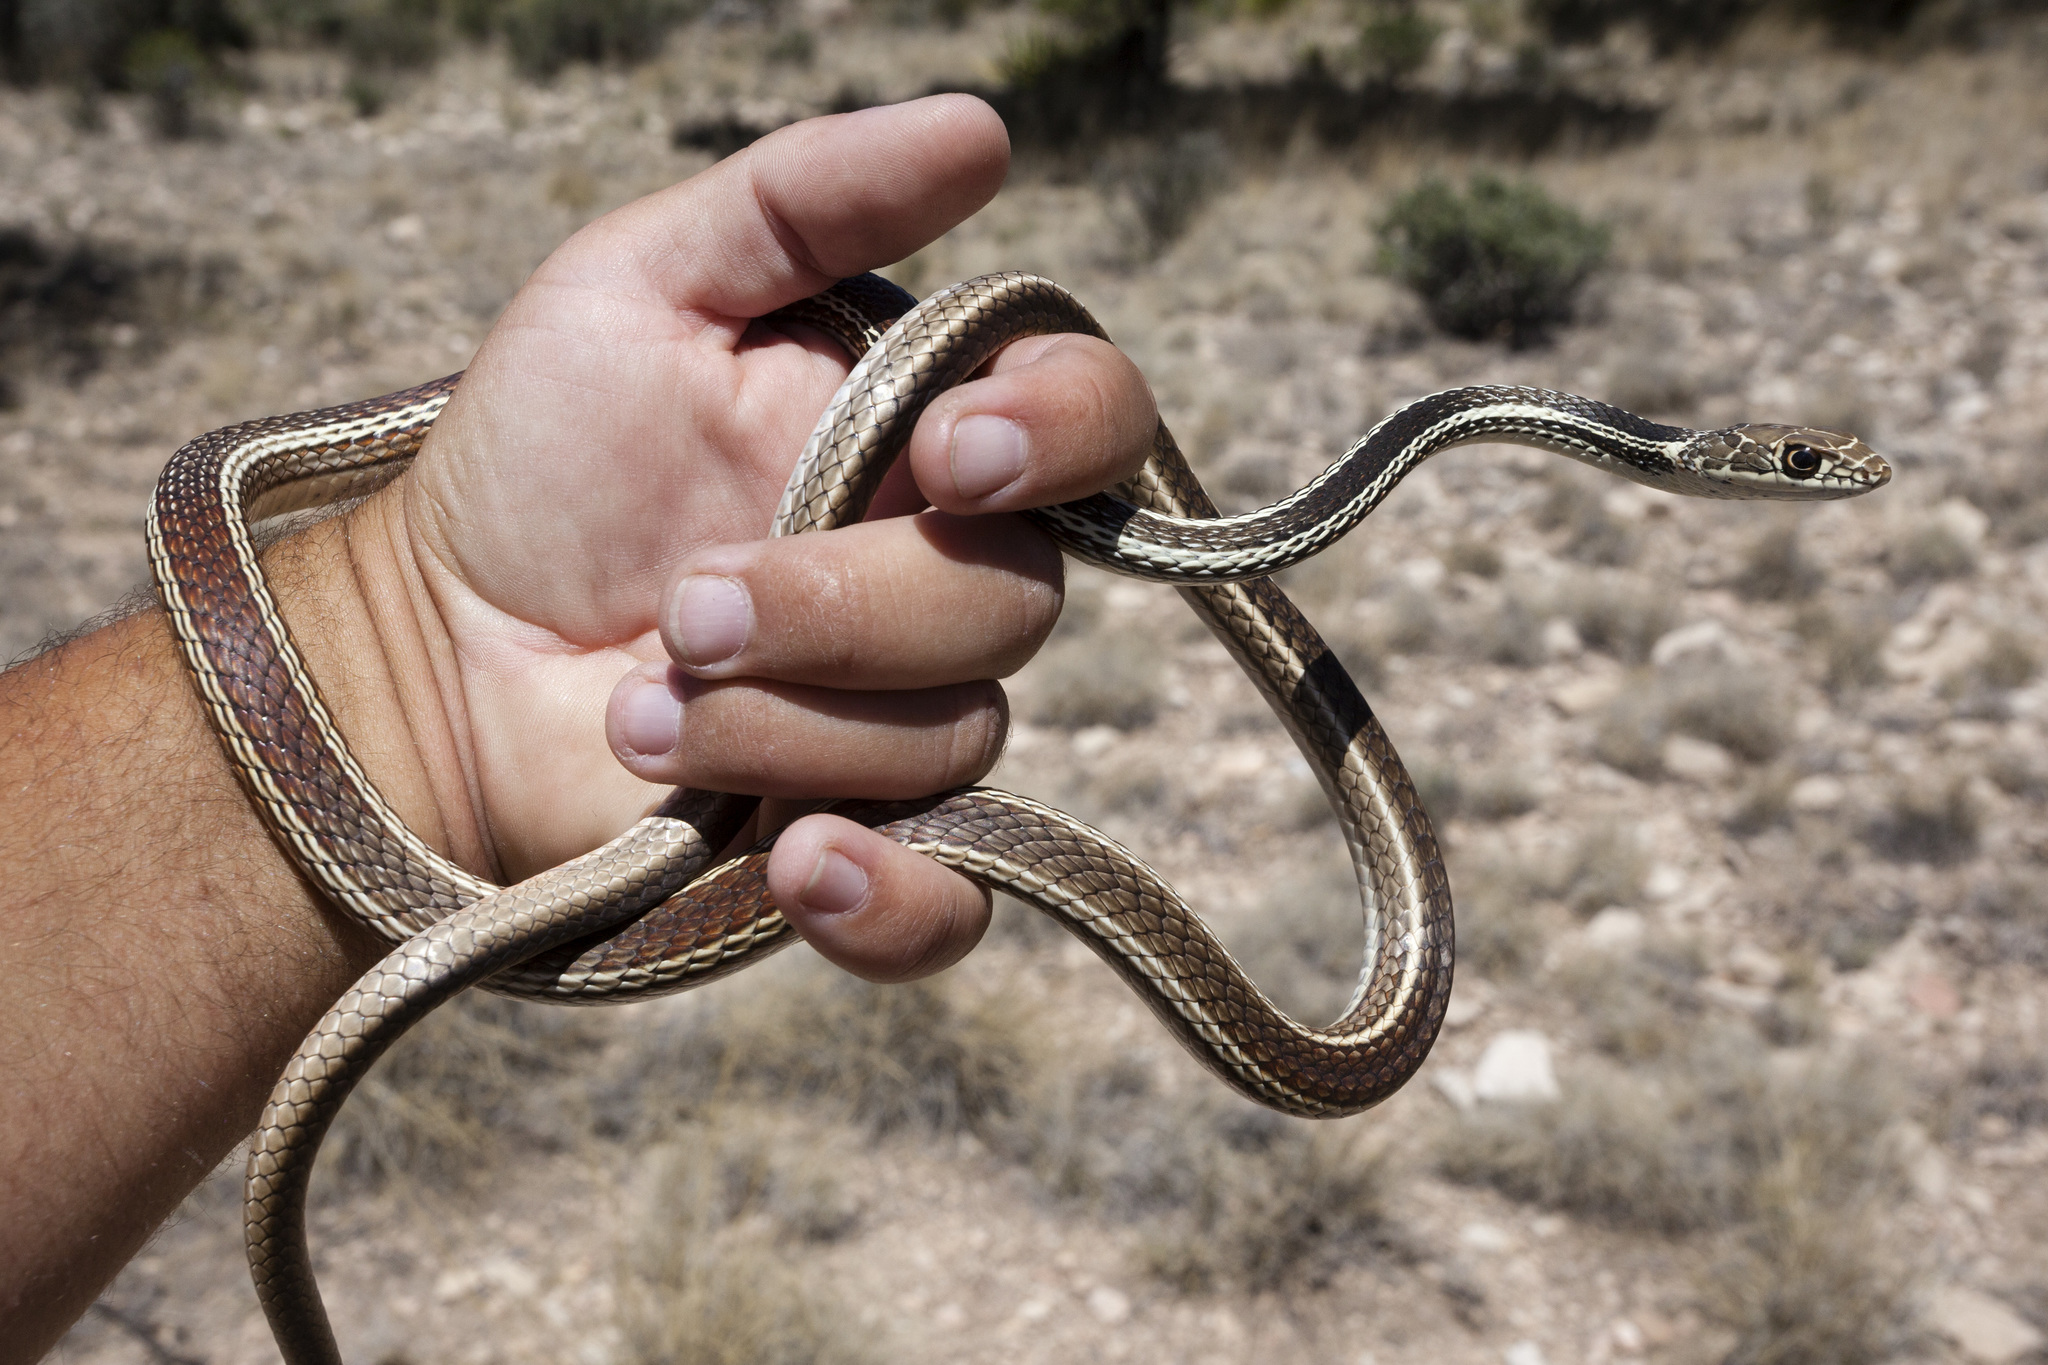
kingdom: Animalia
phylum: Chordata
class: Squamata
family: Colubridae
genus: Masticophis
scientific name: Masticophis taeniatus
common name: Striped whipsnake
